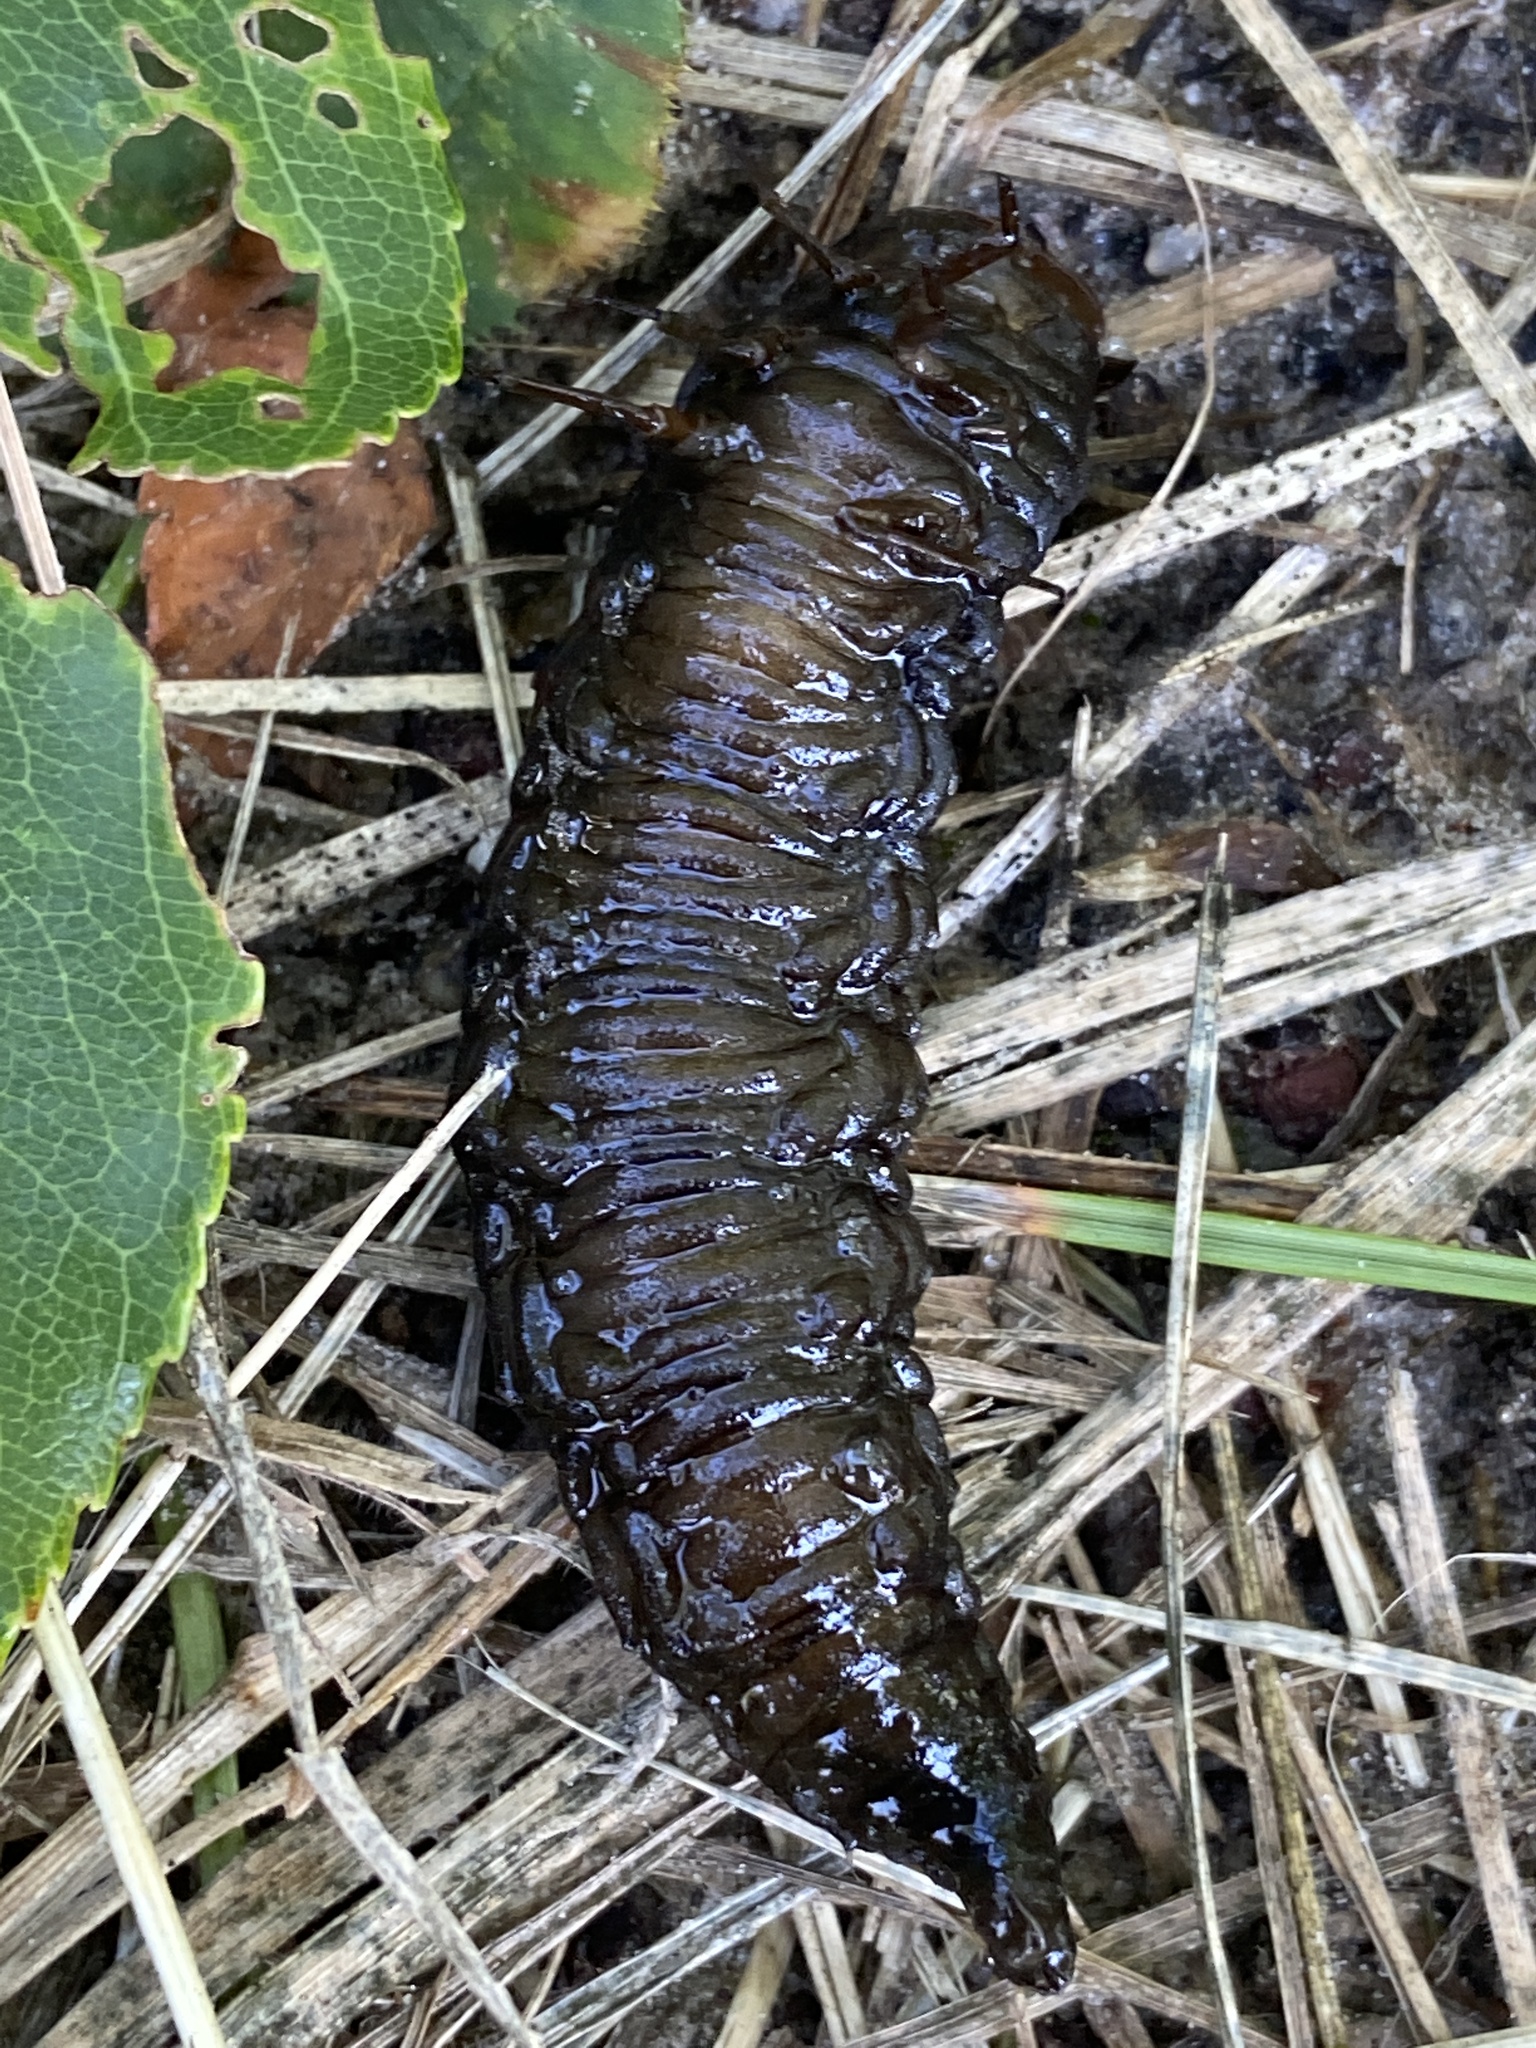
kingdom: Animalia
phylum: Arthropoda
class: Insecta
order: Coleoptera
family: Hydrophilidae
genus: Hydrophilus
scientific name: Hydrophilus
